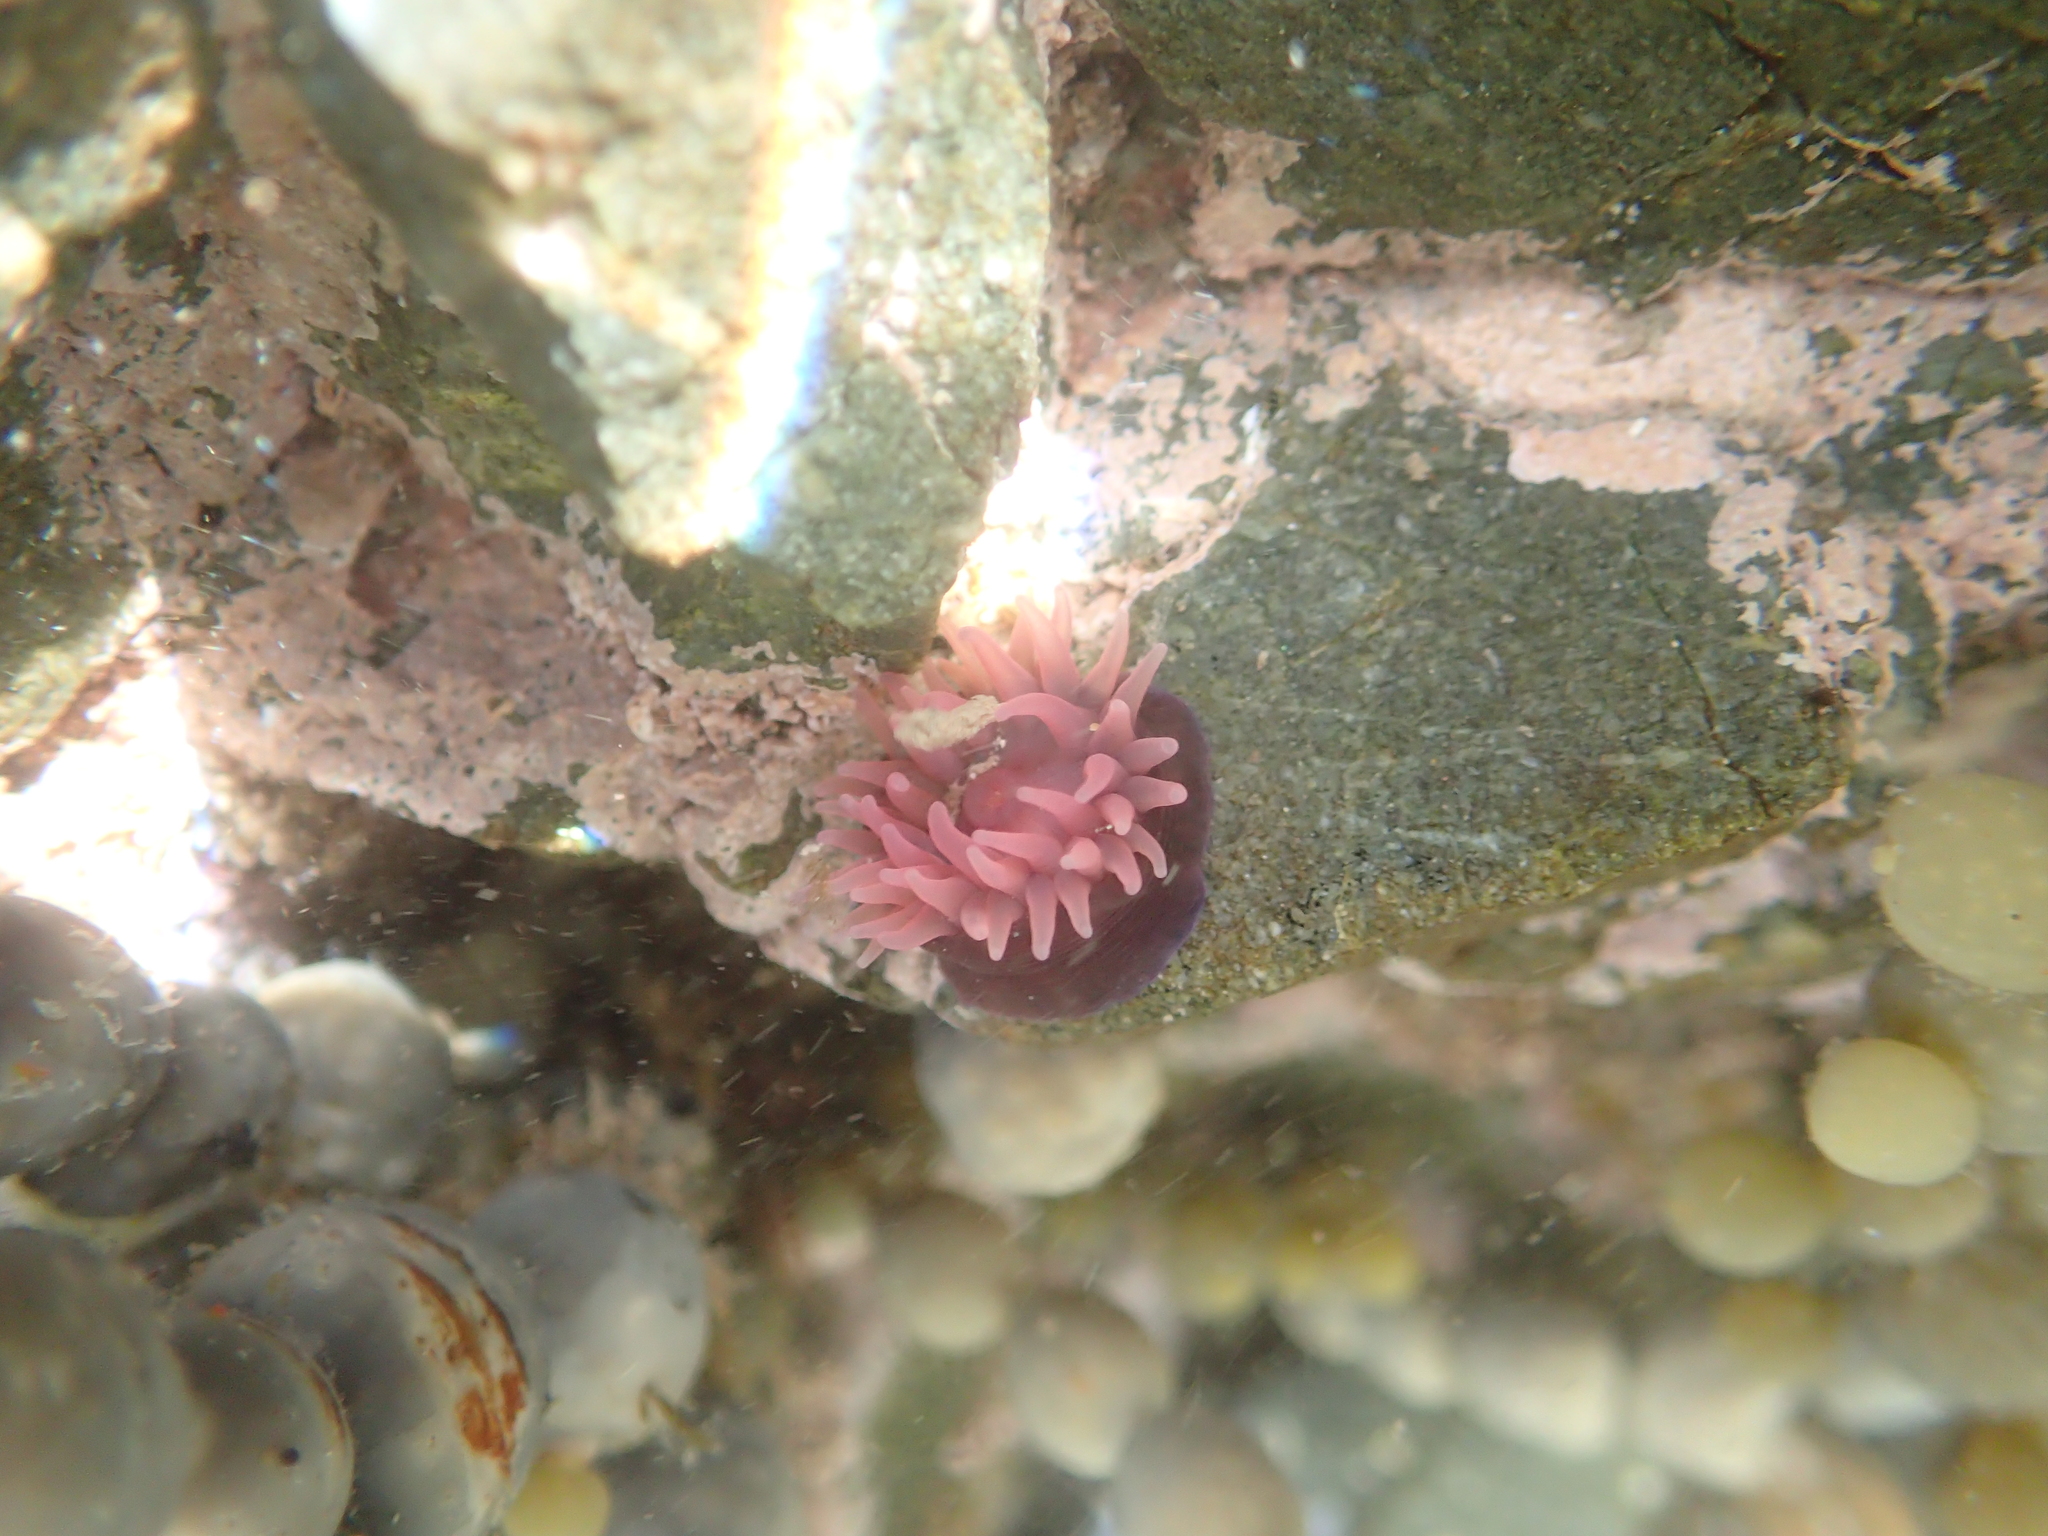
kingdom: Animalia
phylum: Cnidaria
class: Anthozoa
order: Actiniaria
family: Actiniidae
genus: Actinia
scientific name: Actinia tenebrosa
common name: Waratah anemone
